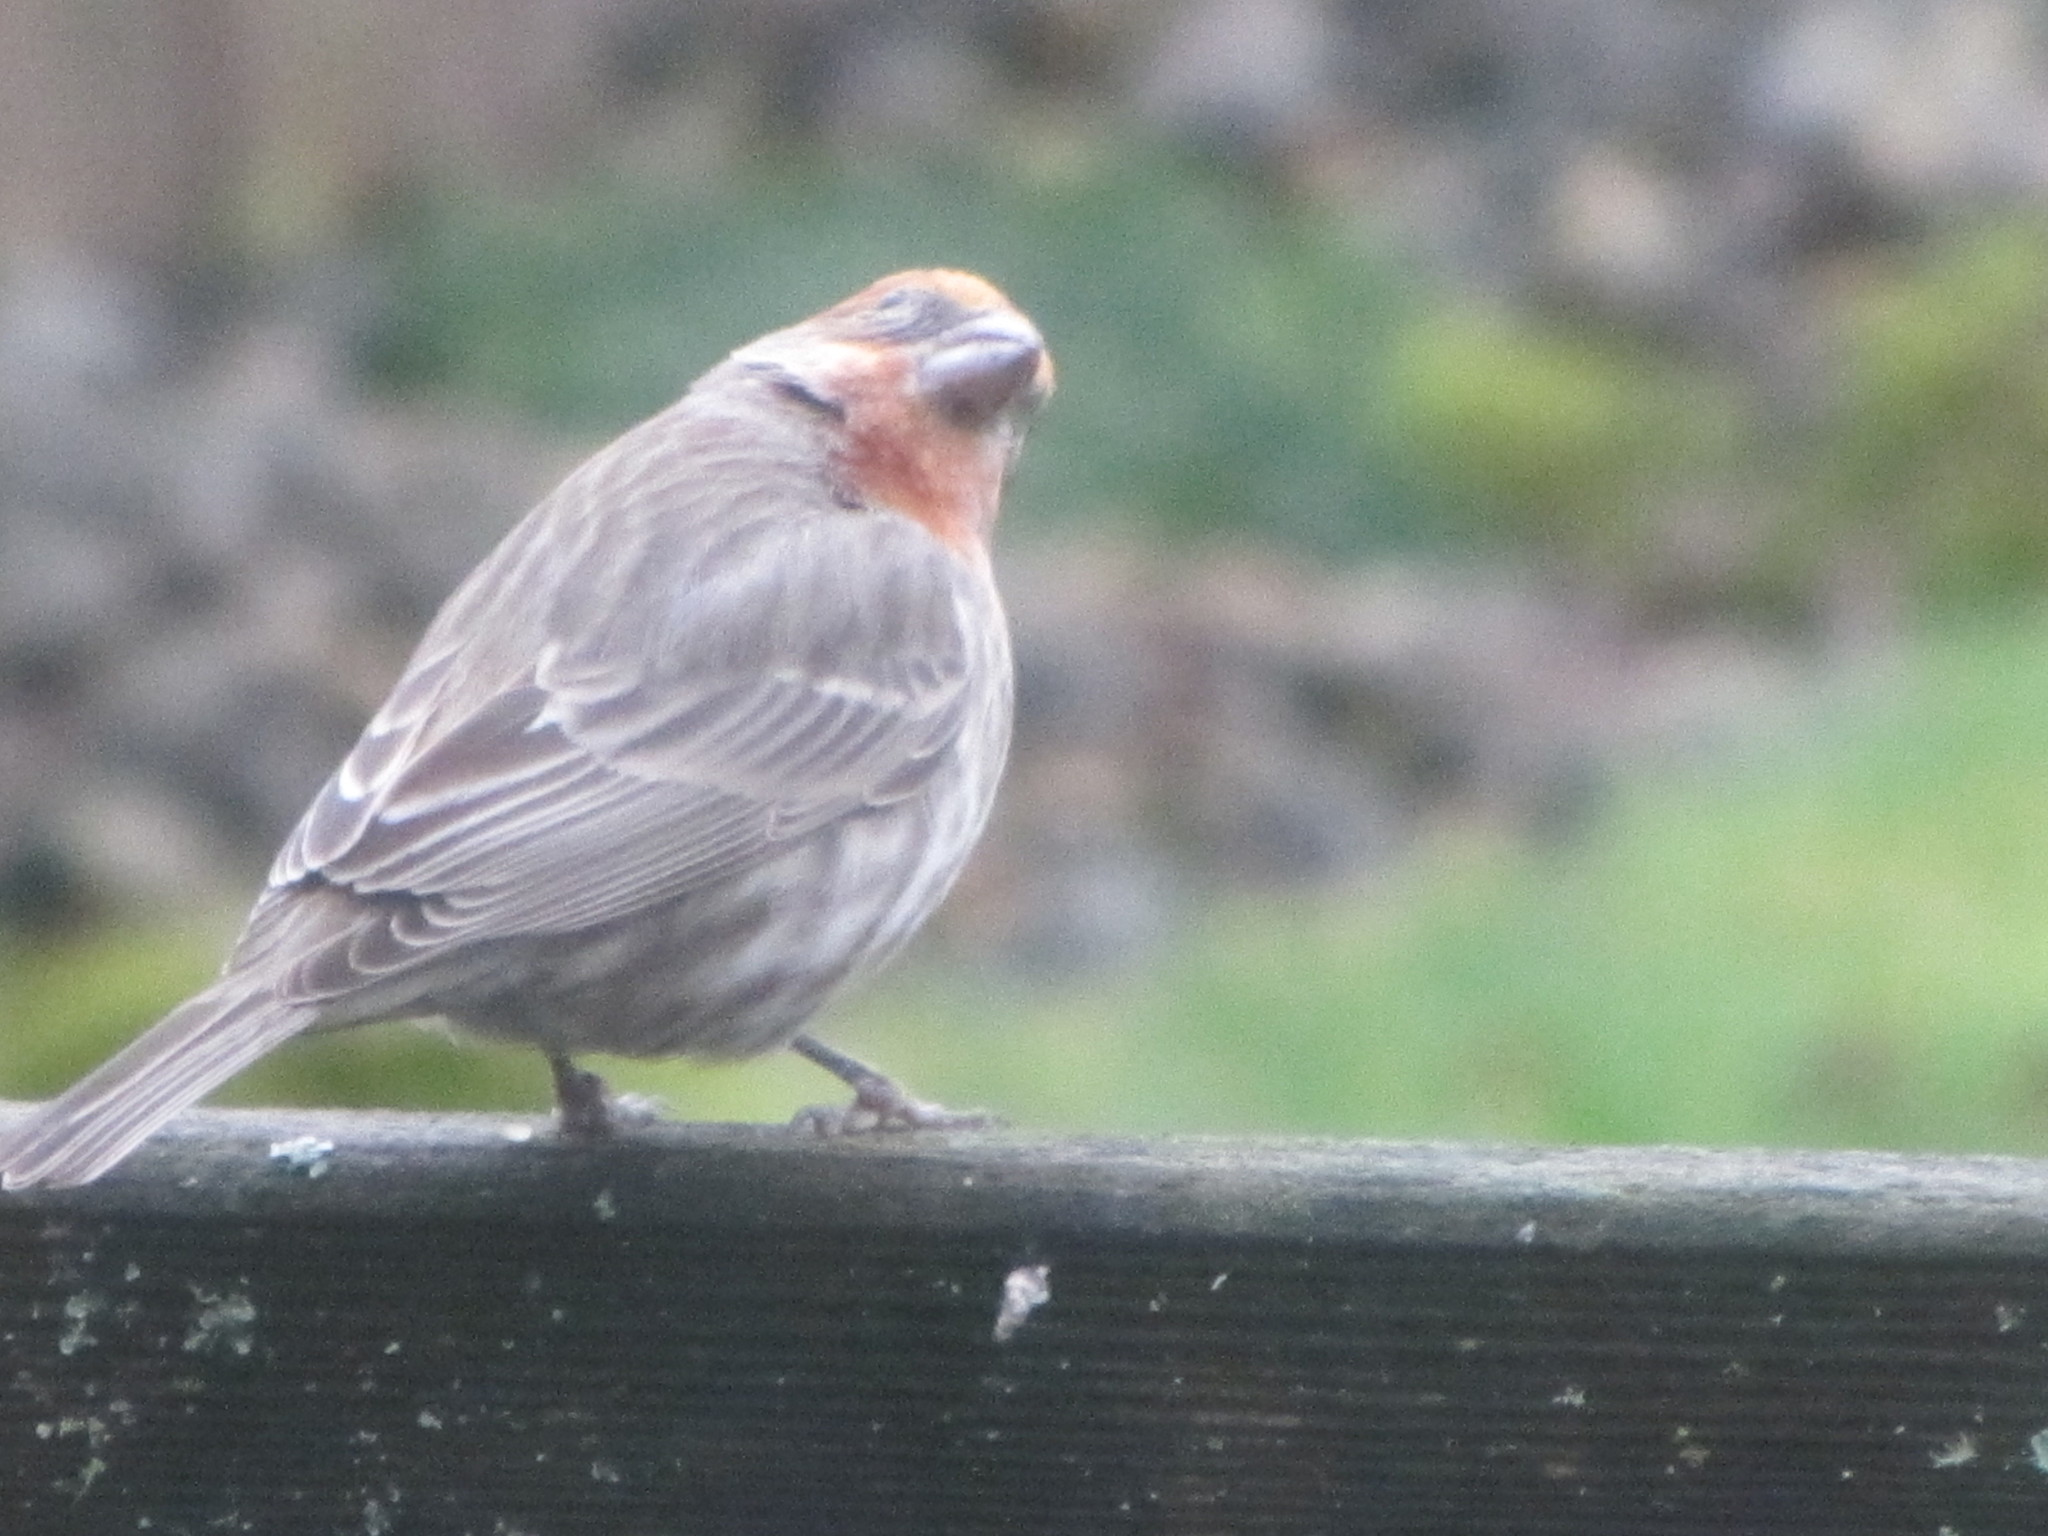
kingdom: Animalia
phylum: Chordata
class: Aves
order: Passeriformes
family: Fringillidae
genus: Haemorhous
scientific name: Haemorhous mexicanus
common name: House finch
